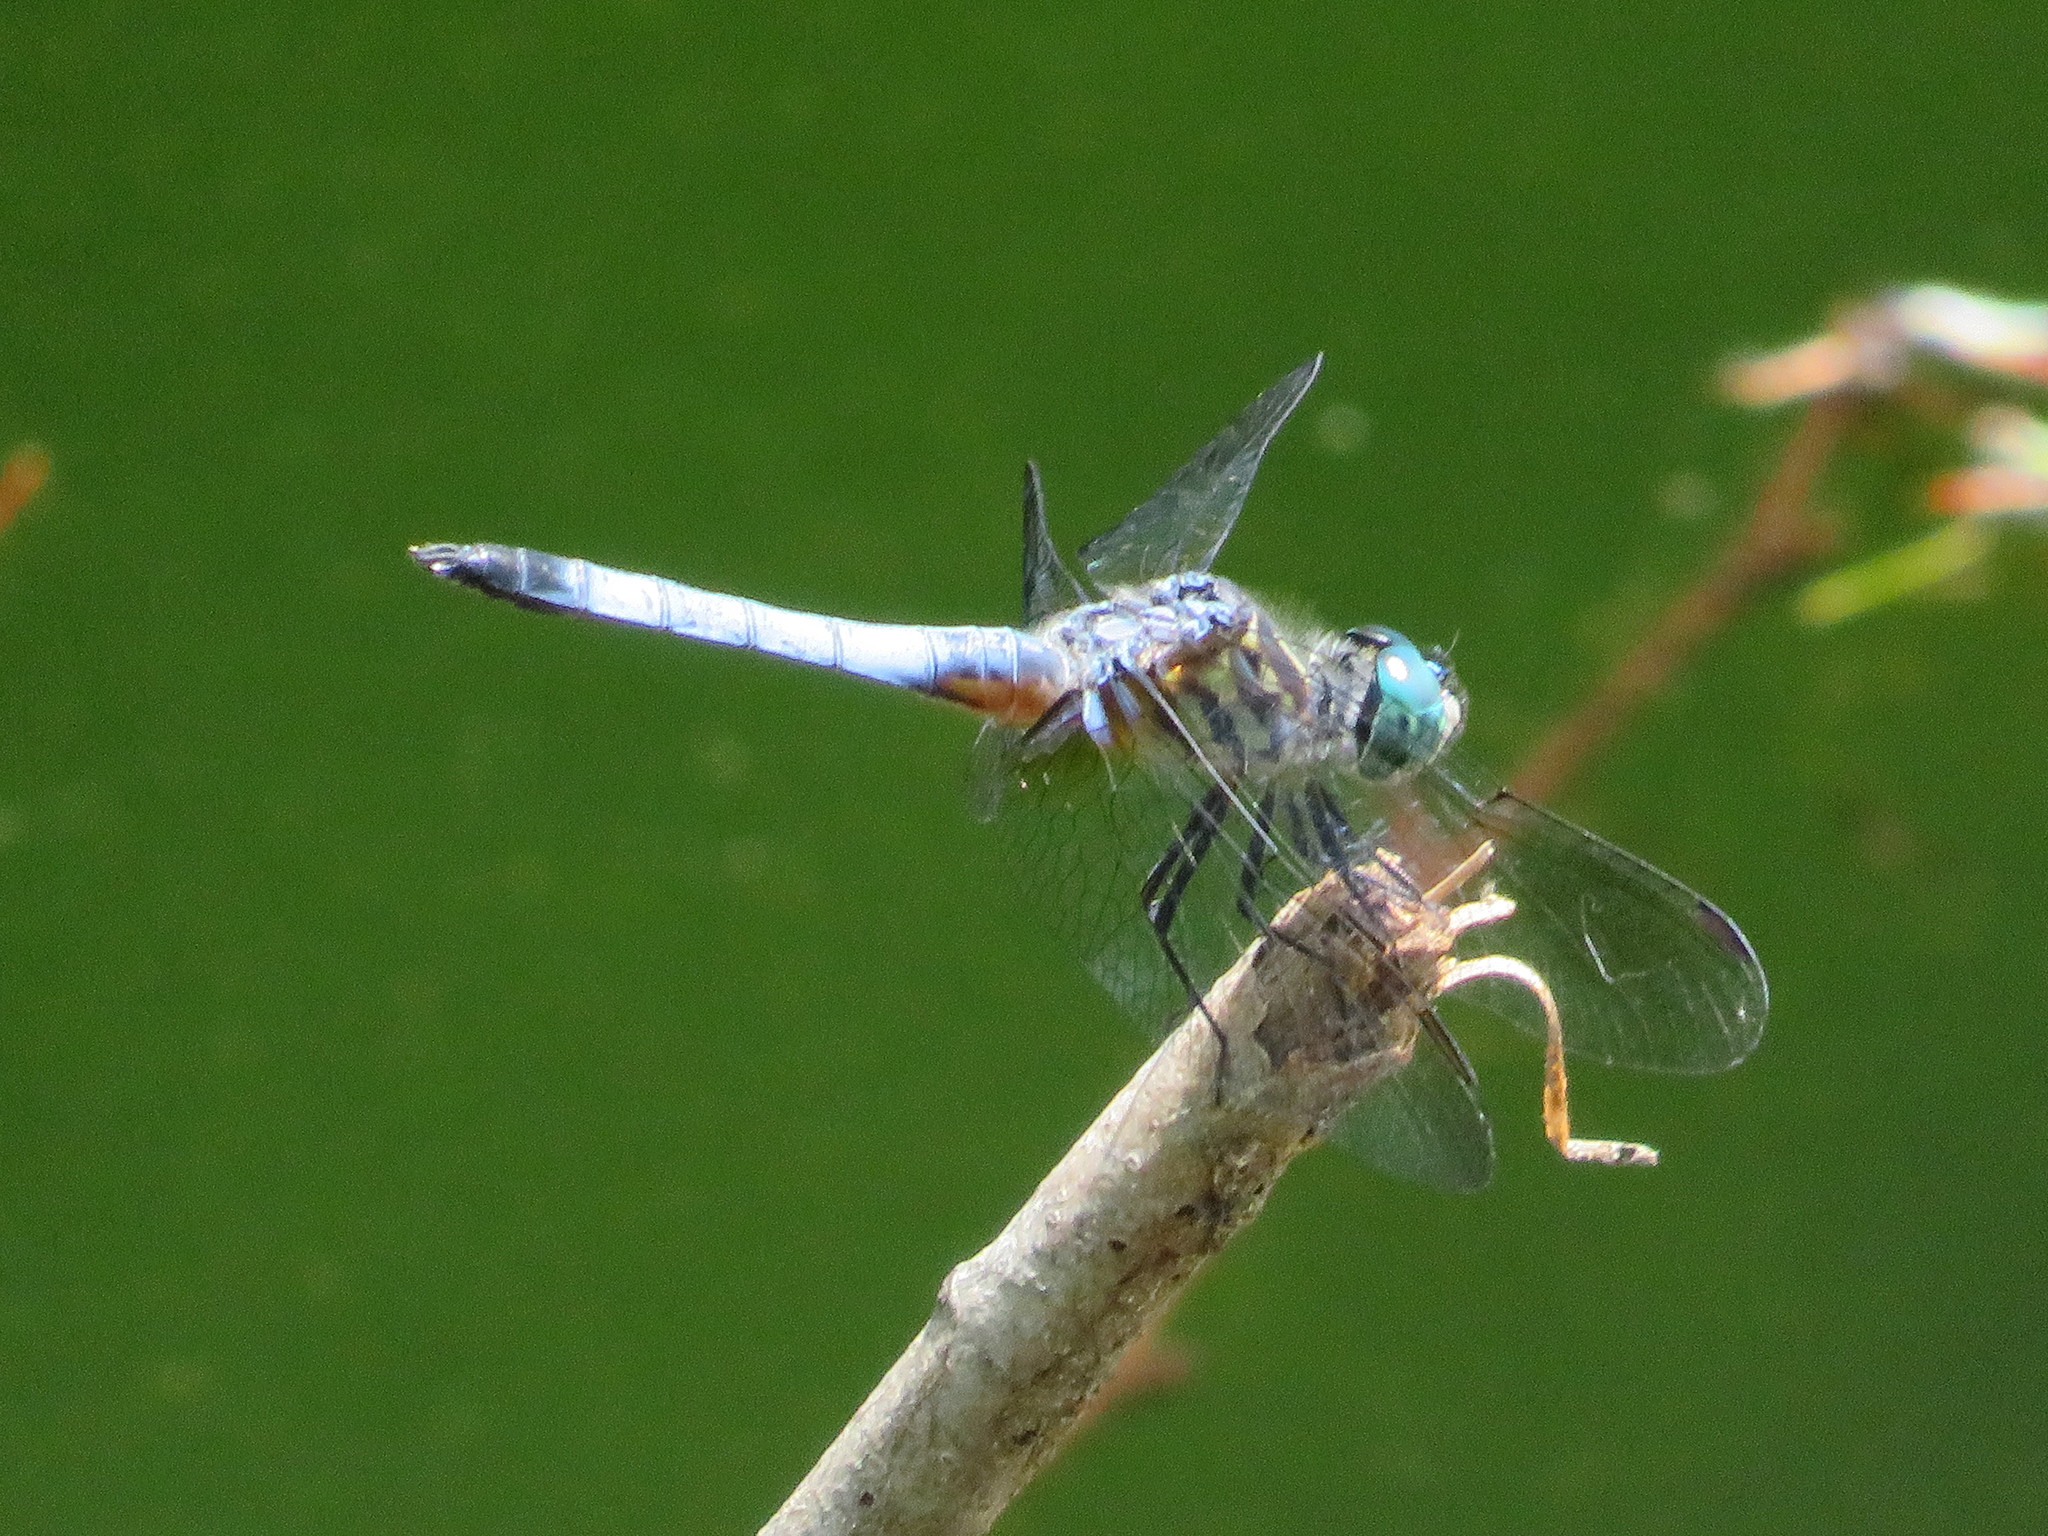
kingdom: Animalia
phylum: Arthropoda
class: Insecta
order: Odonata
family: Libellulidae
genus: Pachydiplax
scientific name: Pachydiplax longipennis
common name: Blue dasher
